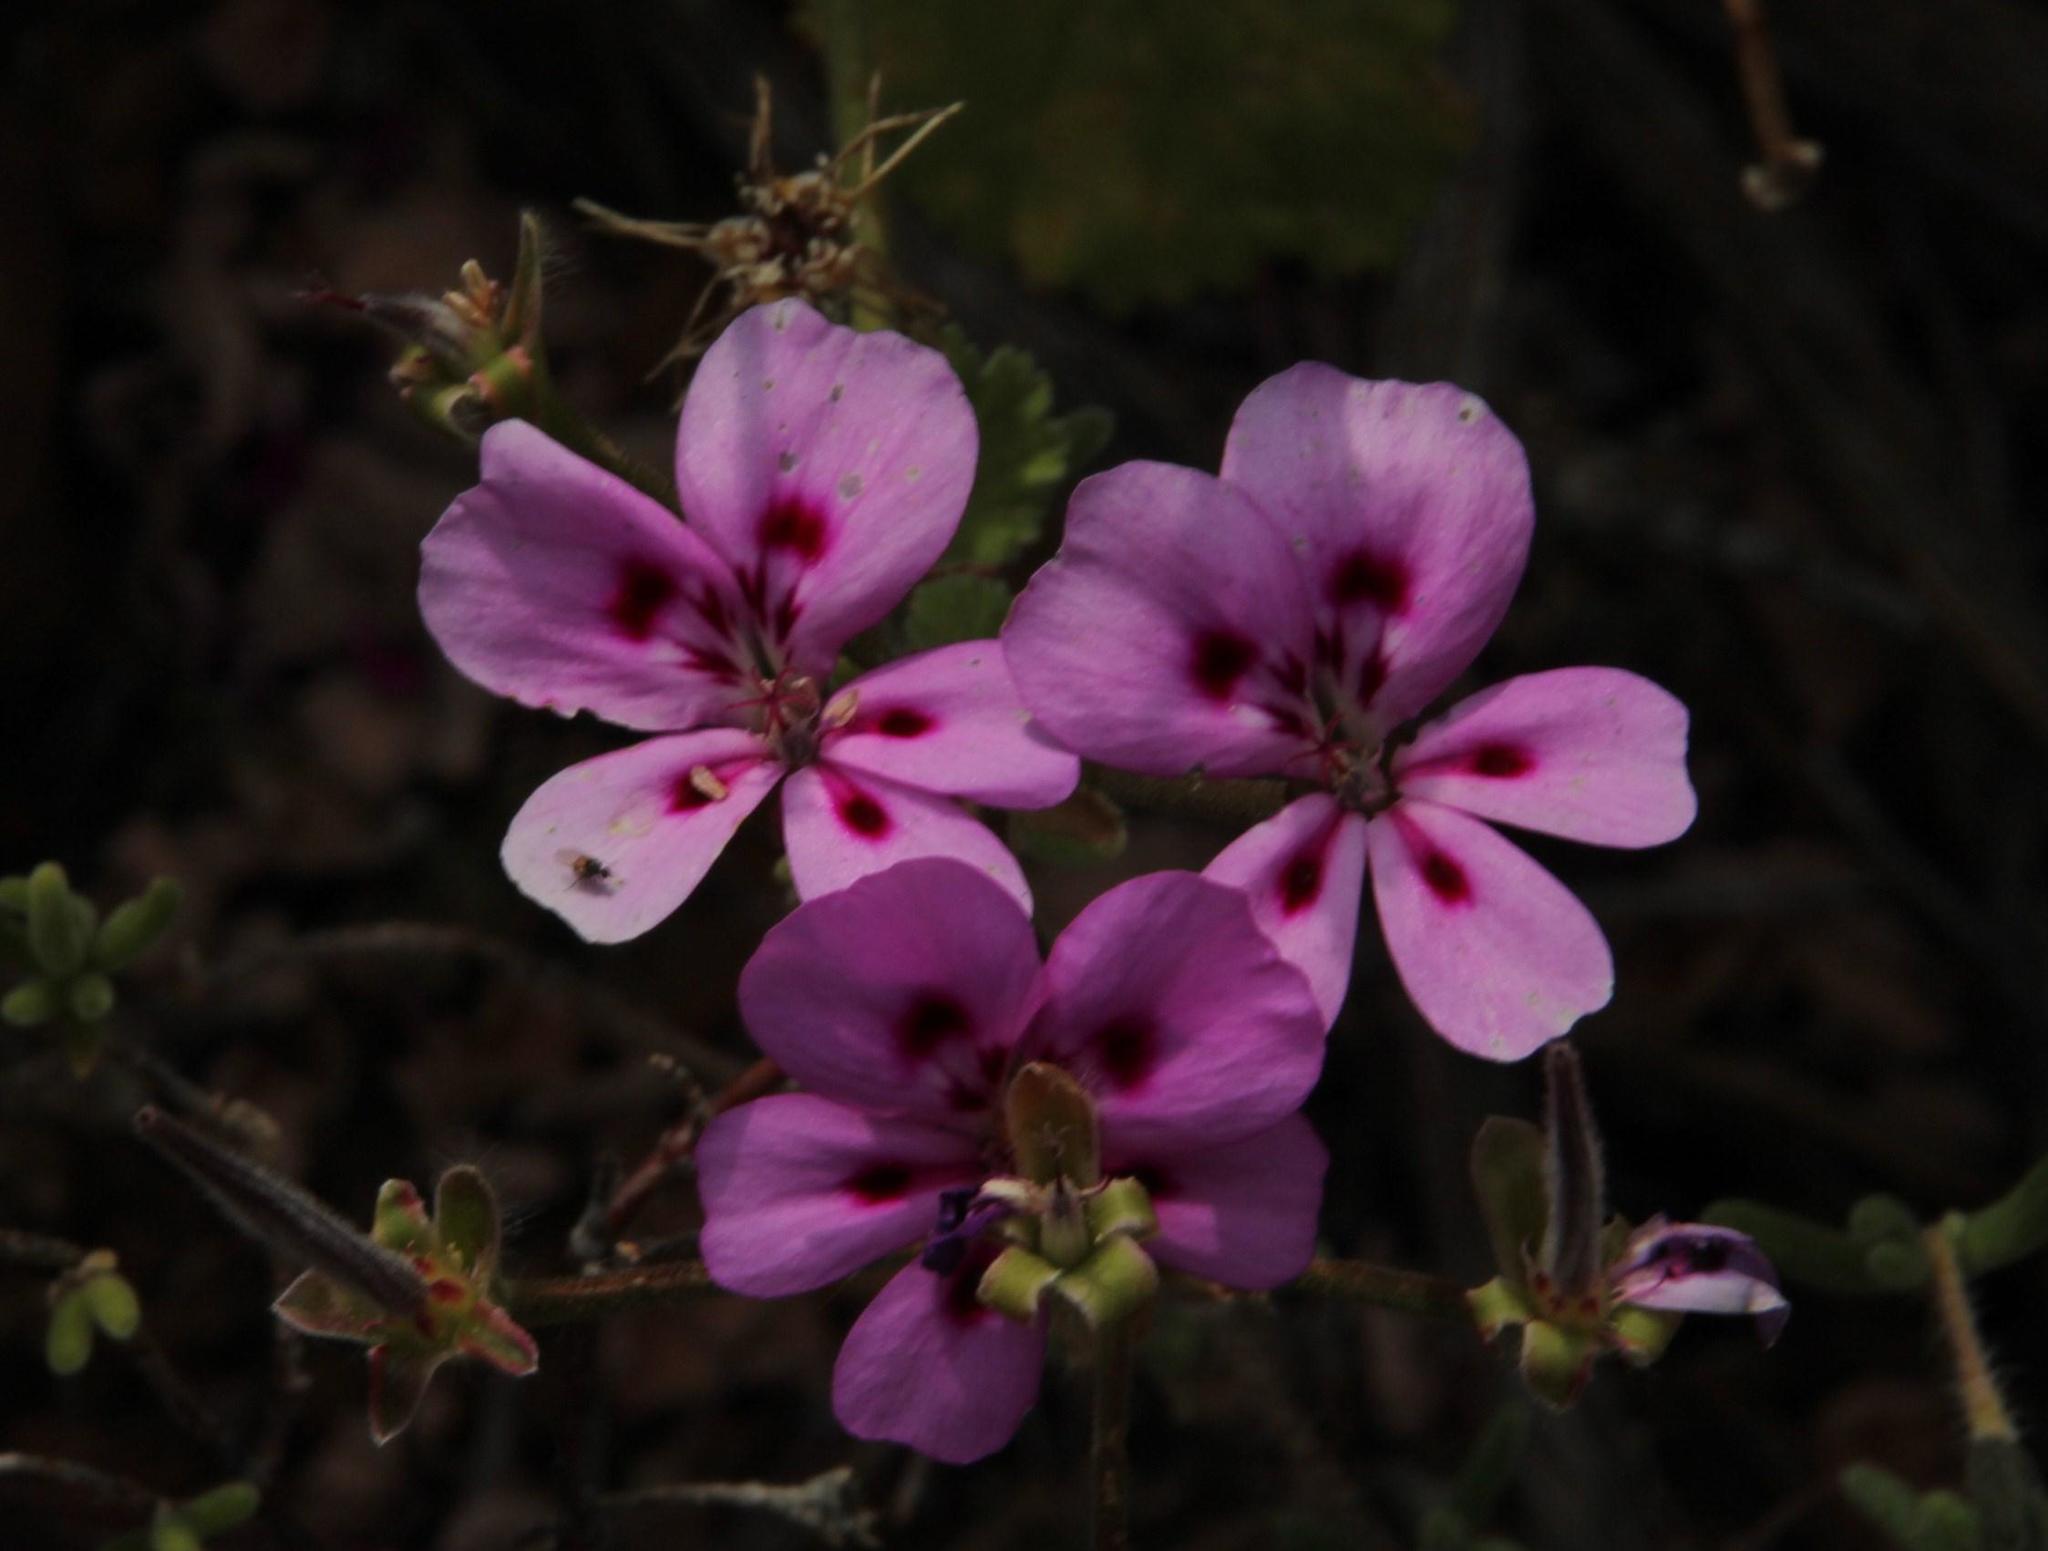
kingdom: Plantae
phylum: Tracheophyta
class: Magnoliopsida
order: Geraniales
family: Geraniaceae
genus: Pelargonium
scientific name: Pelargonium magenteum
